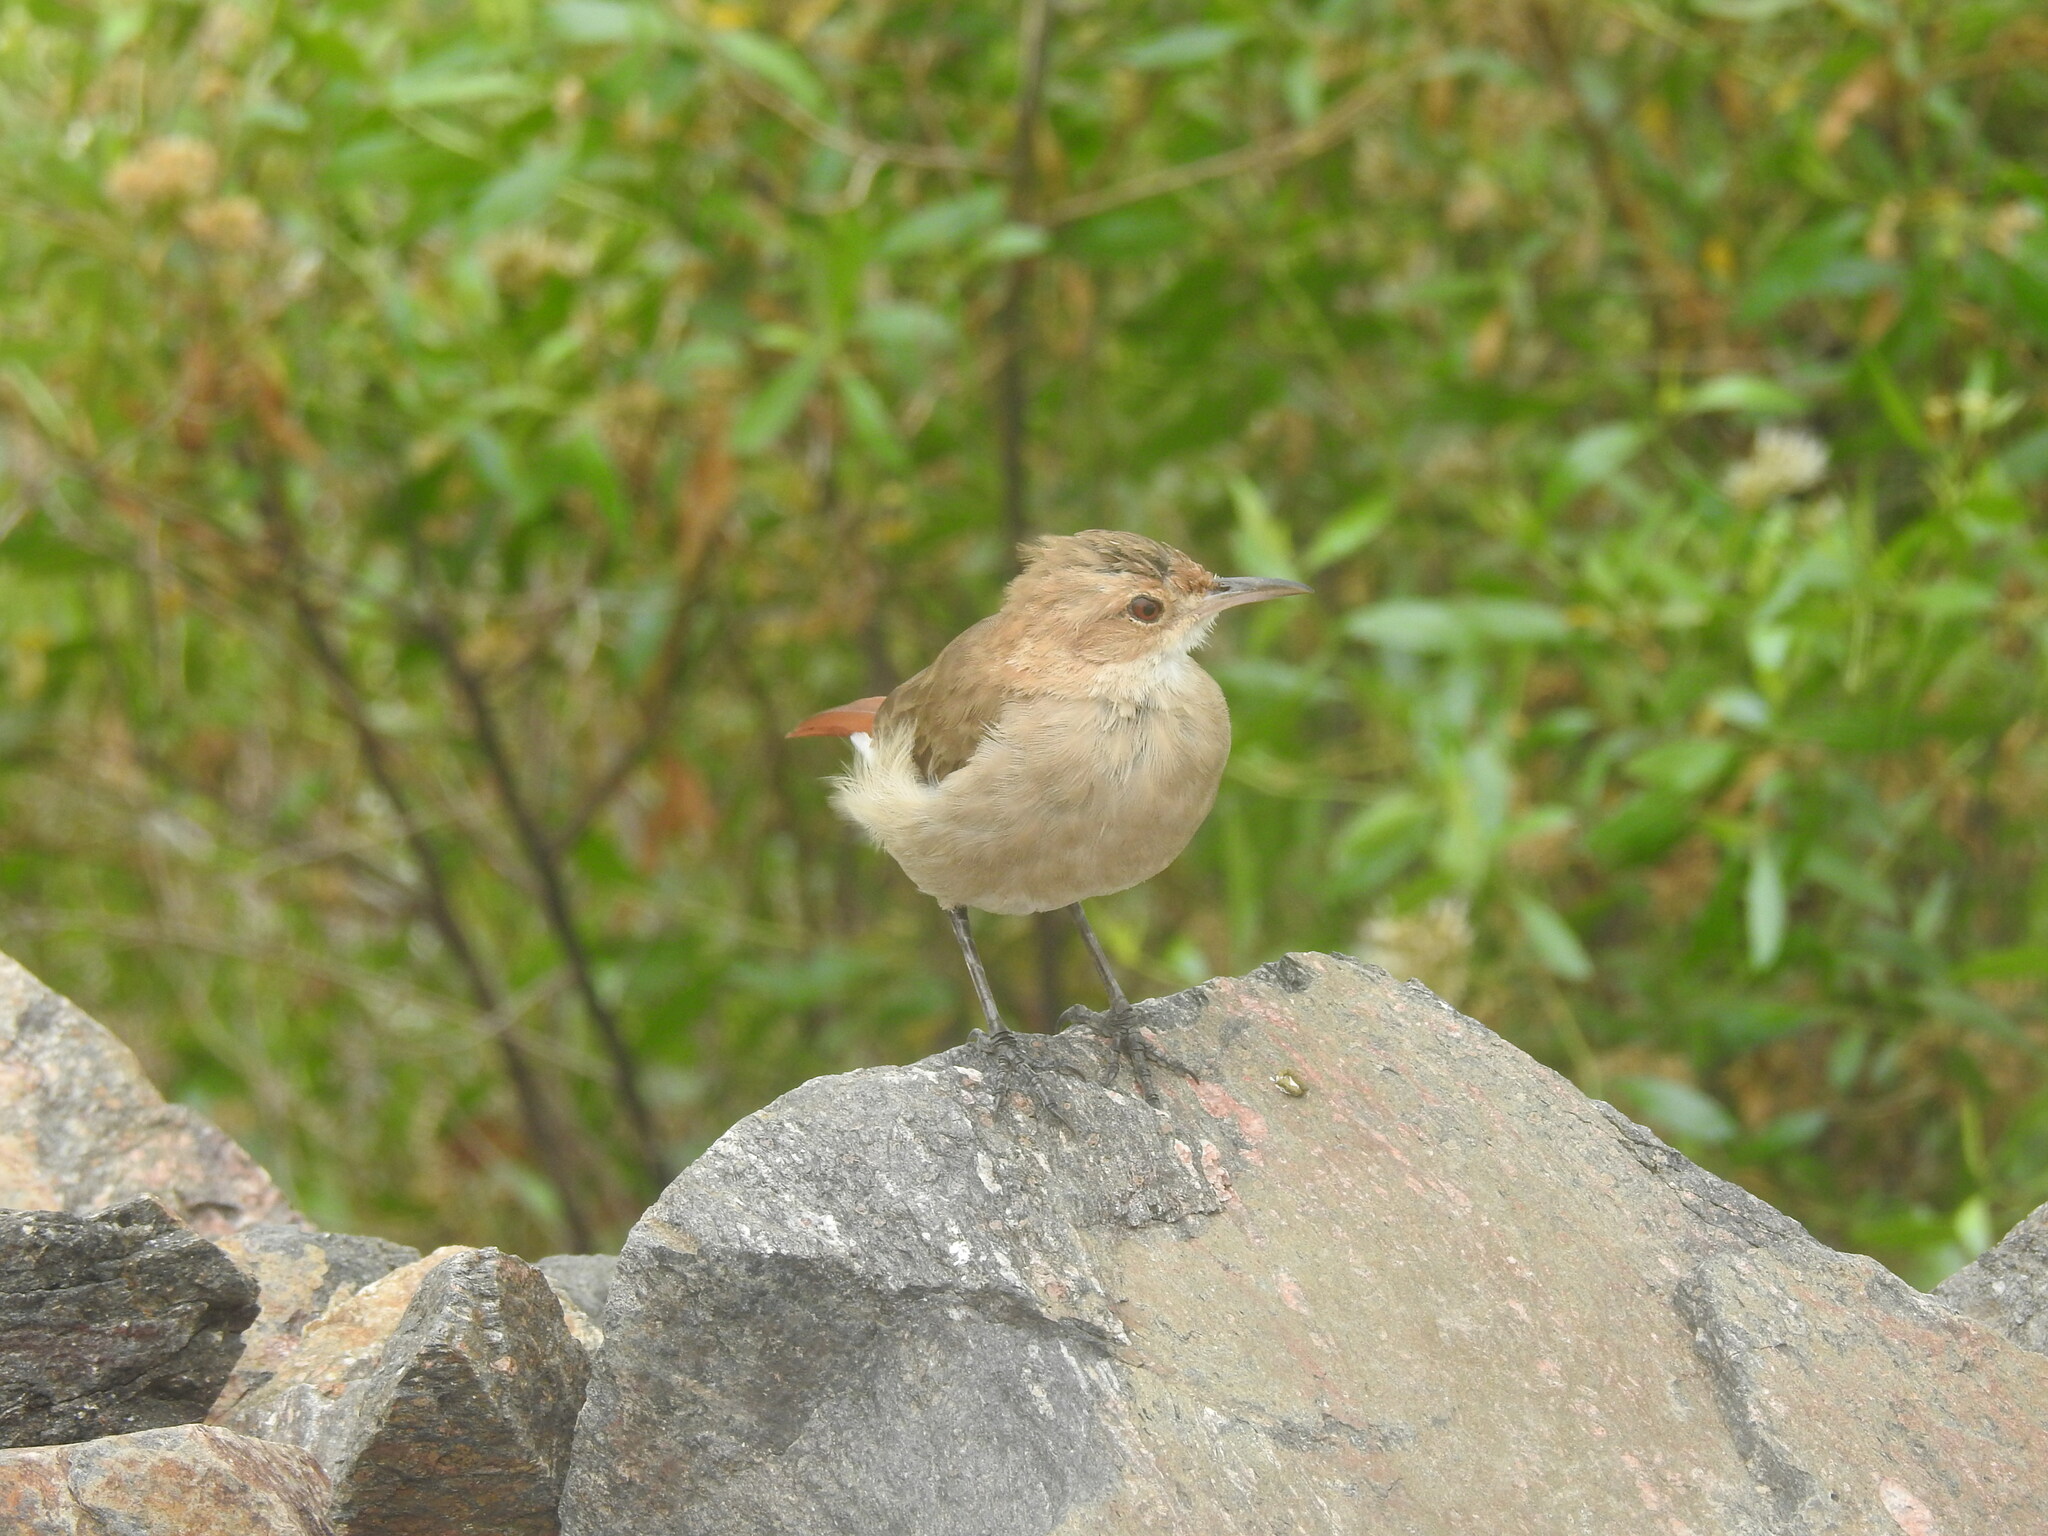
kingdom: Animalia
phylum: Chordata
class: Aves
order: Passeriformes
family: Furnariidae
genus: Furnarius
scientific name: Furnarius rufus
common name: Rufous hornero
